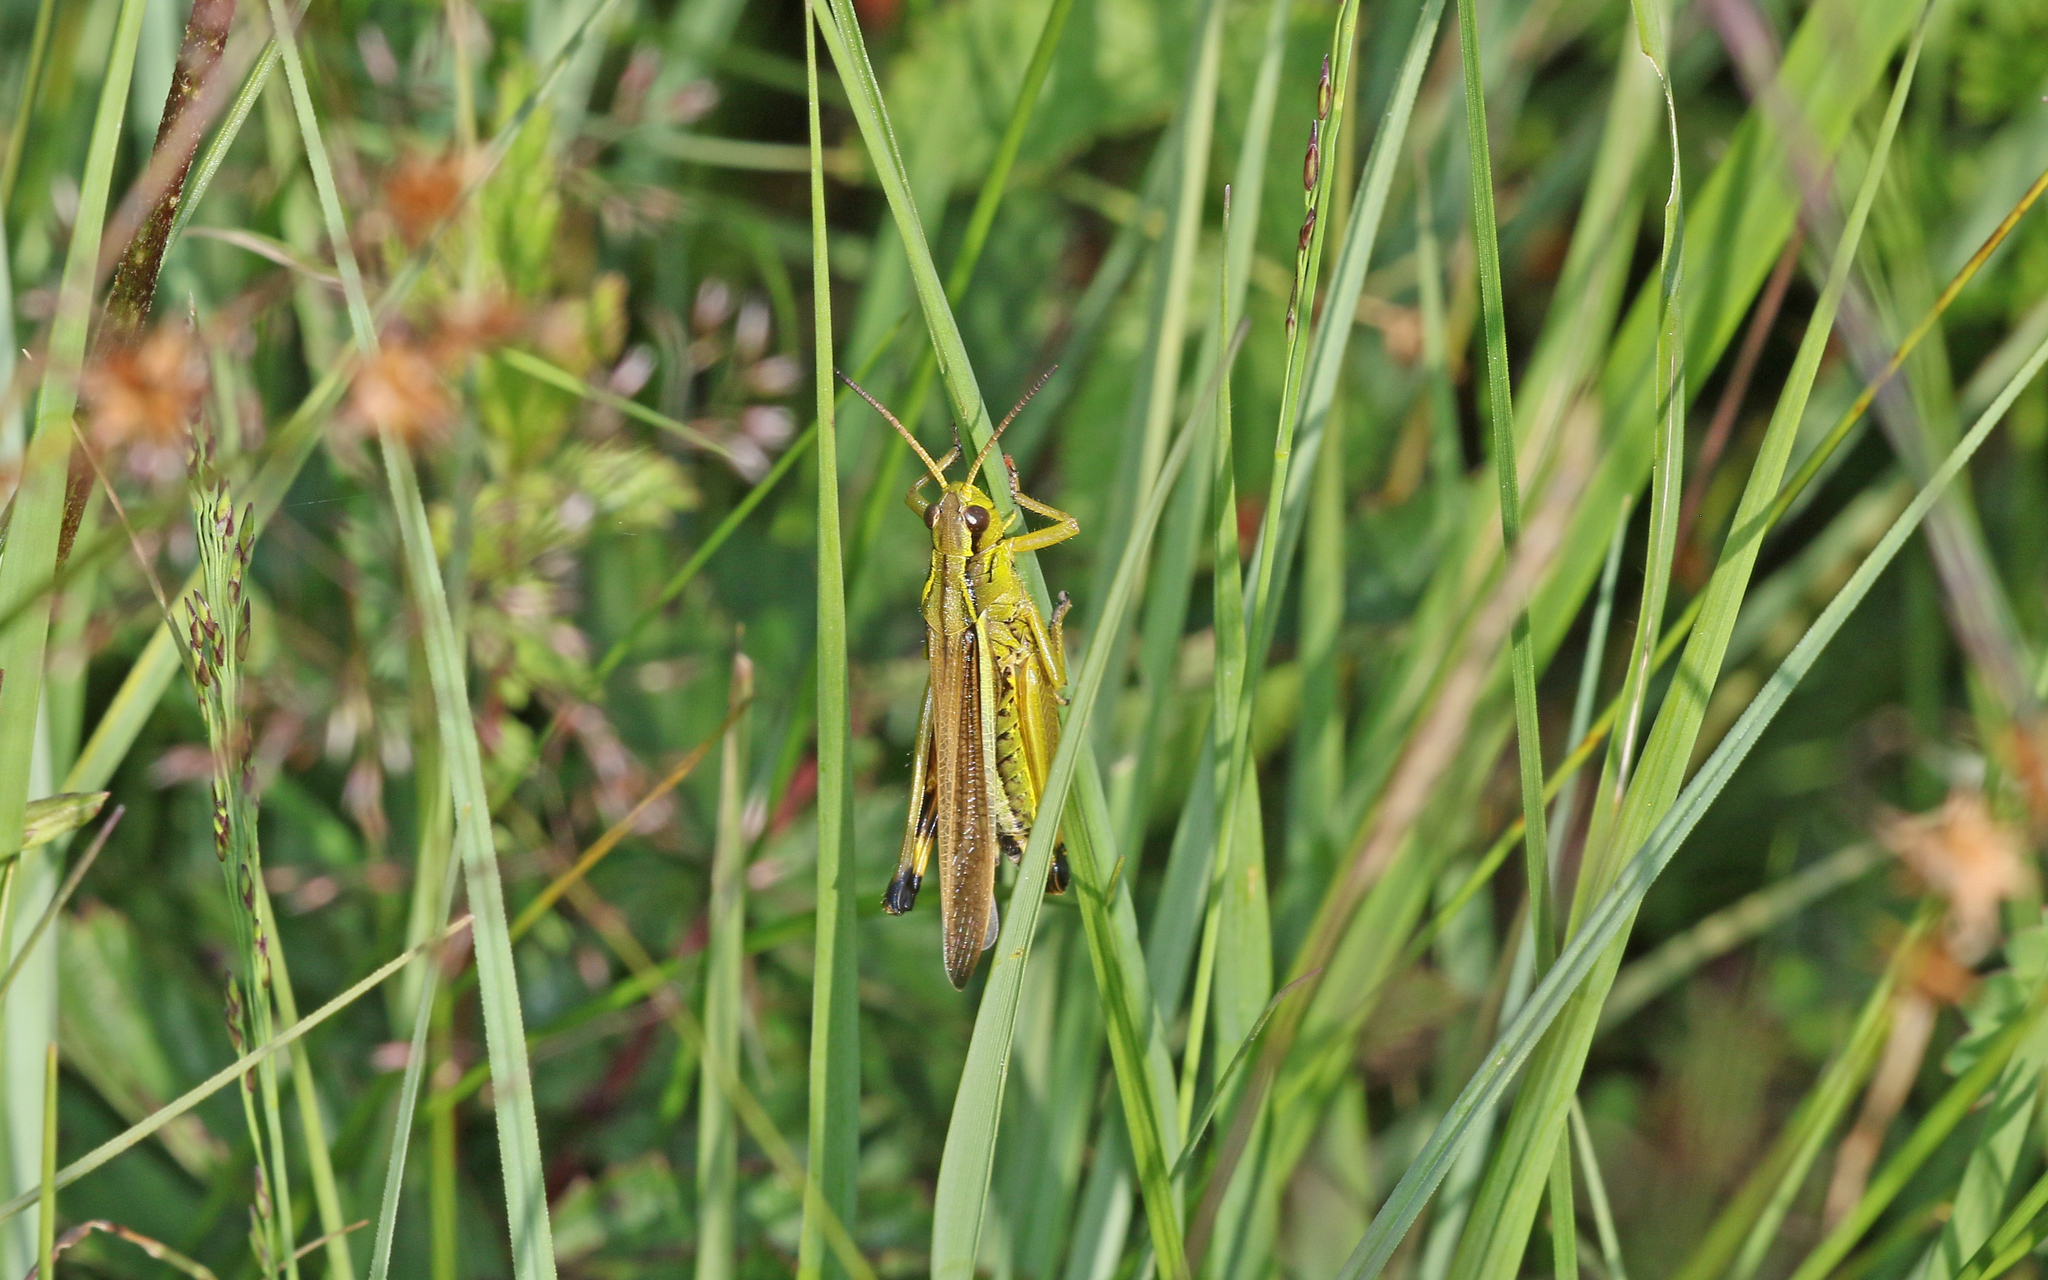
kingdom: Animalia
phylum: Arthropoda
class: Insecta
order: Orthoptera
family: Acrididae
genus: Stethophyma
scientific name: Stethophyma grossum
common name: Large marsh grasshopper
